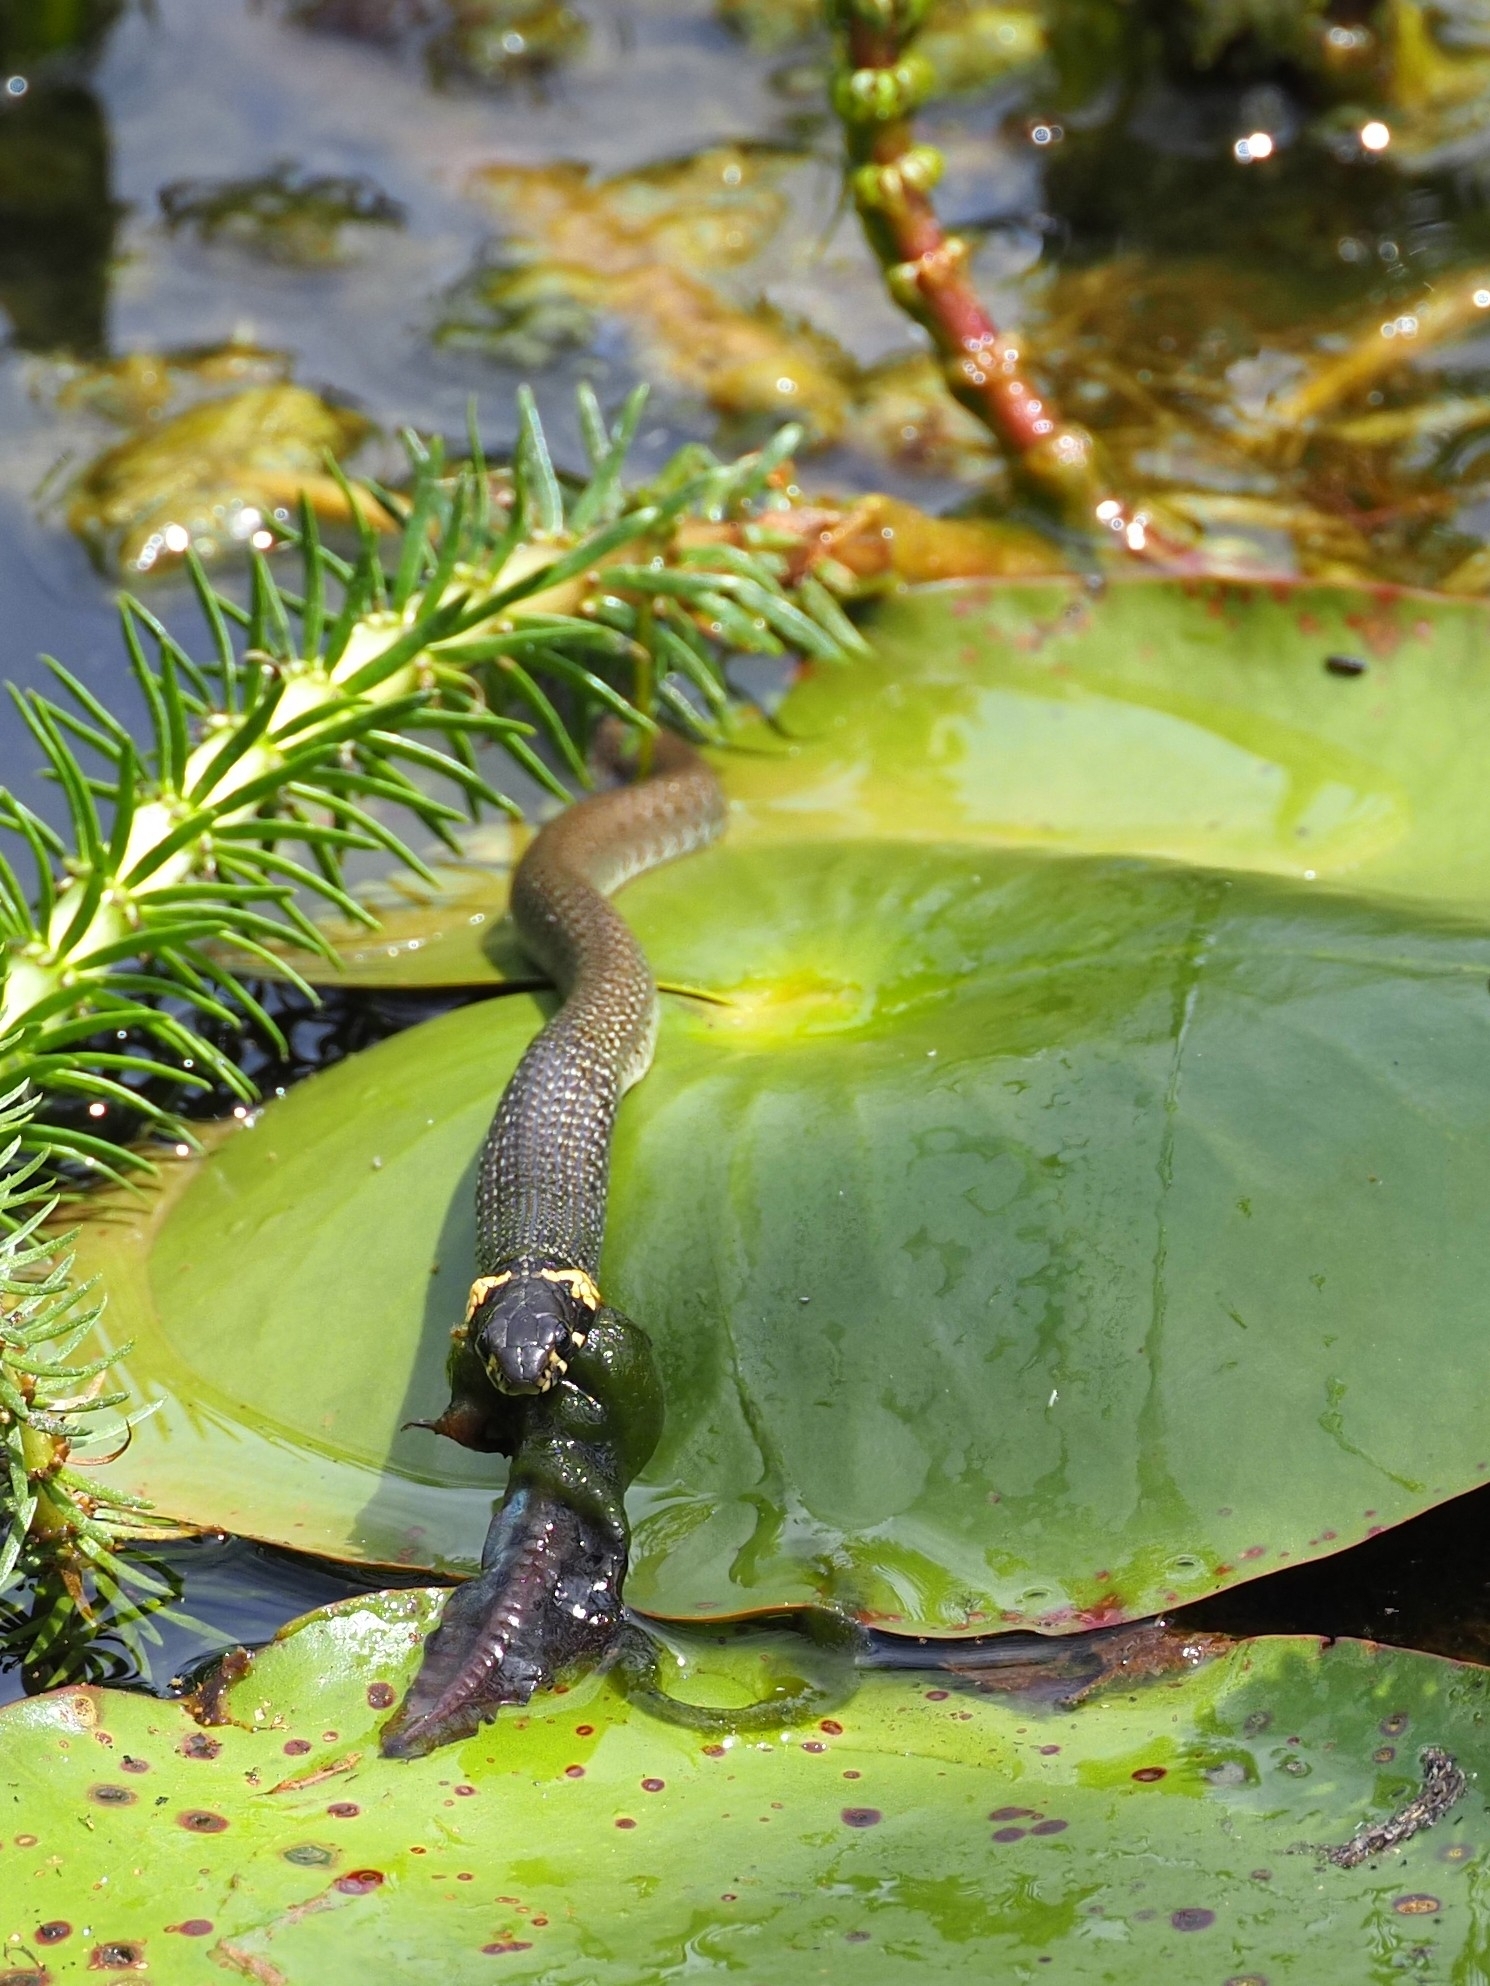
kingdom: Animalia
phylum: Chordata
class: Squamata
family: Colubridae
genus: Natrix
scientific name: Natrix natrix
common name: Grass snake
